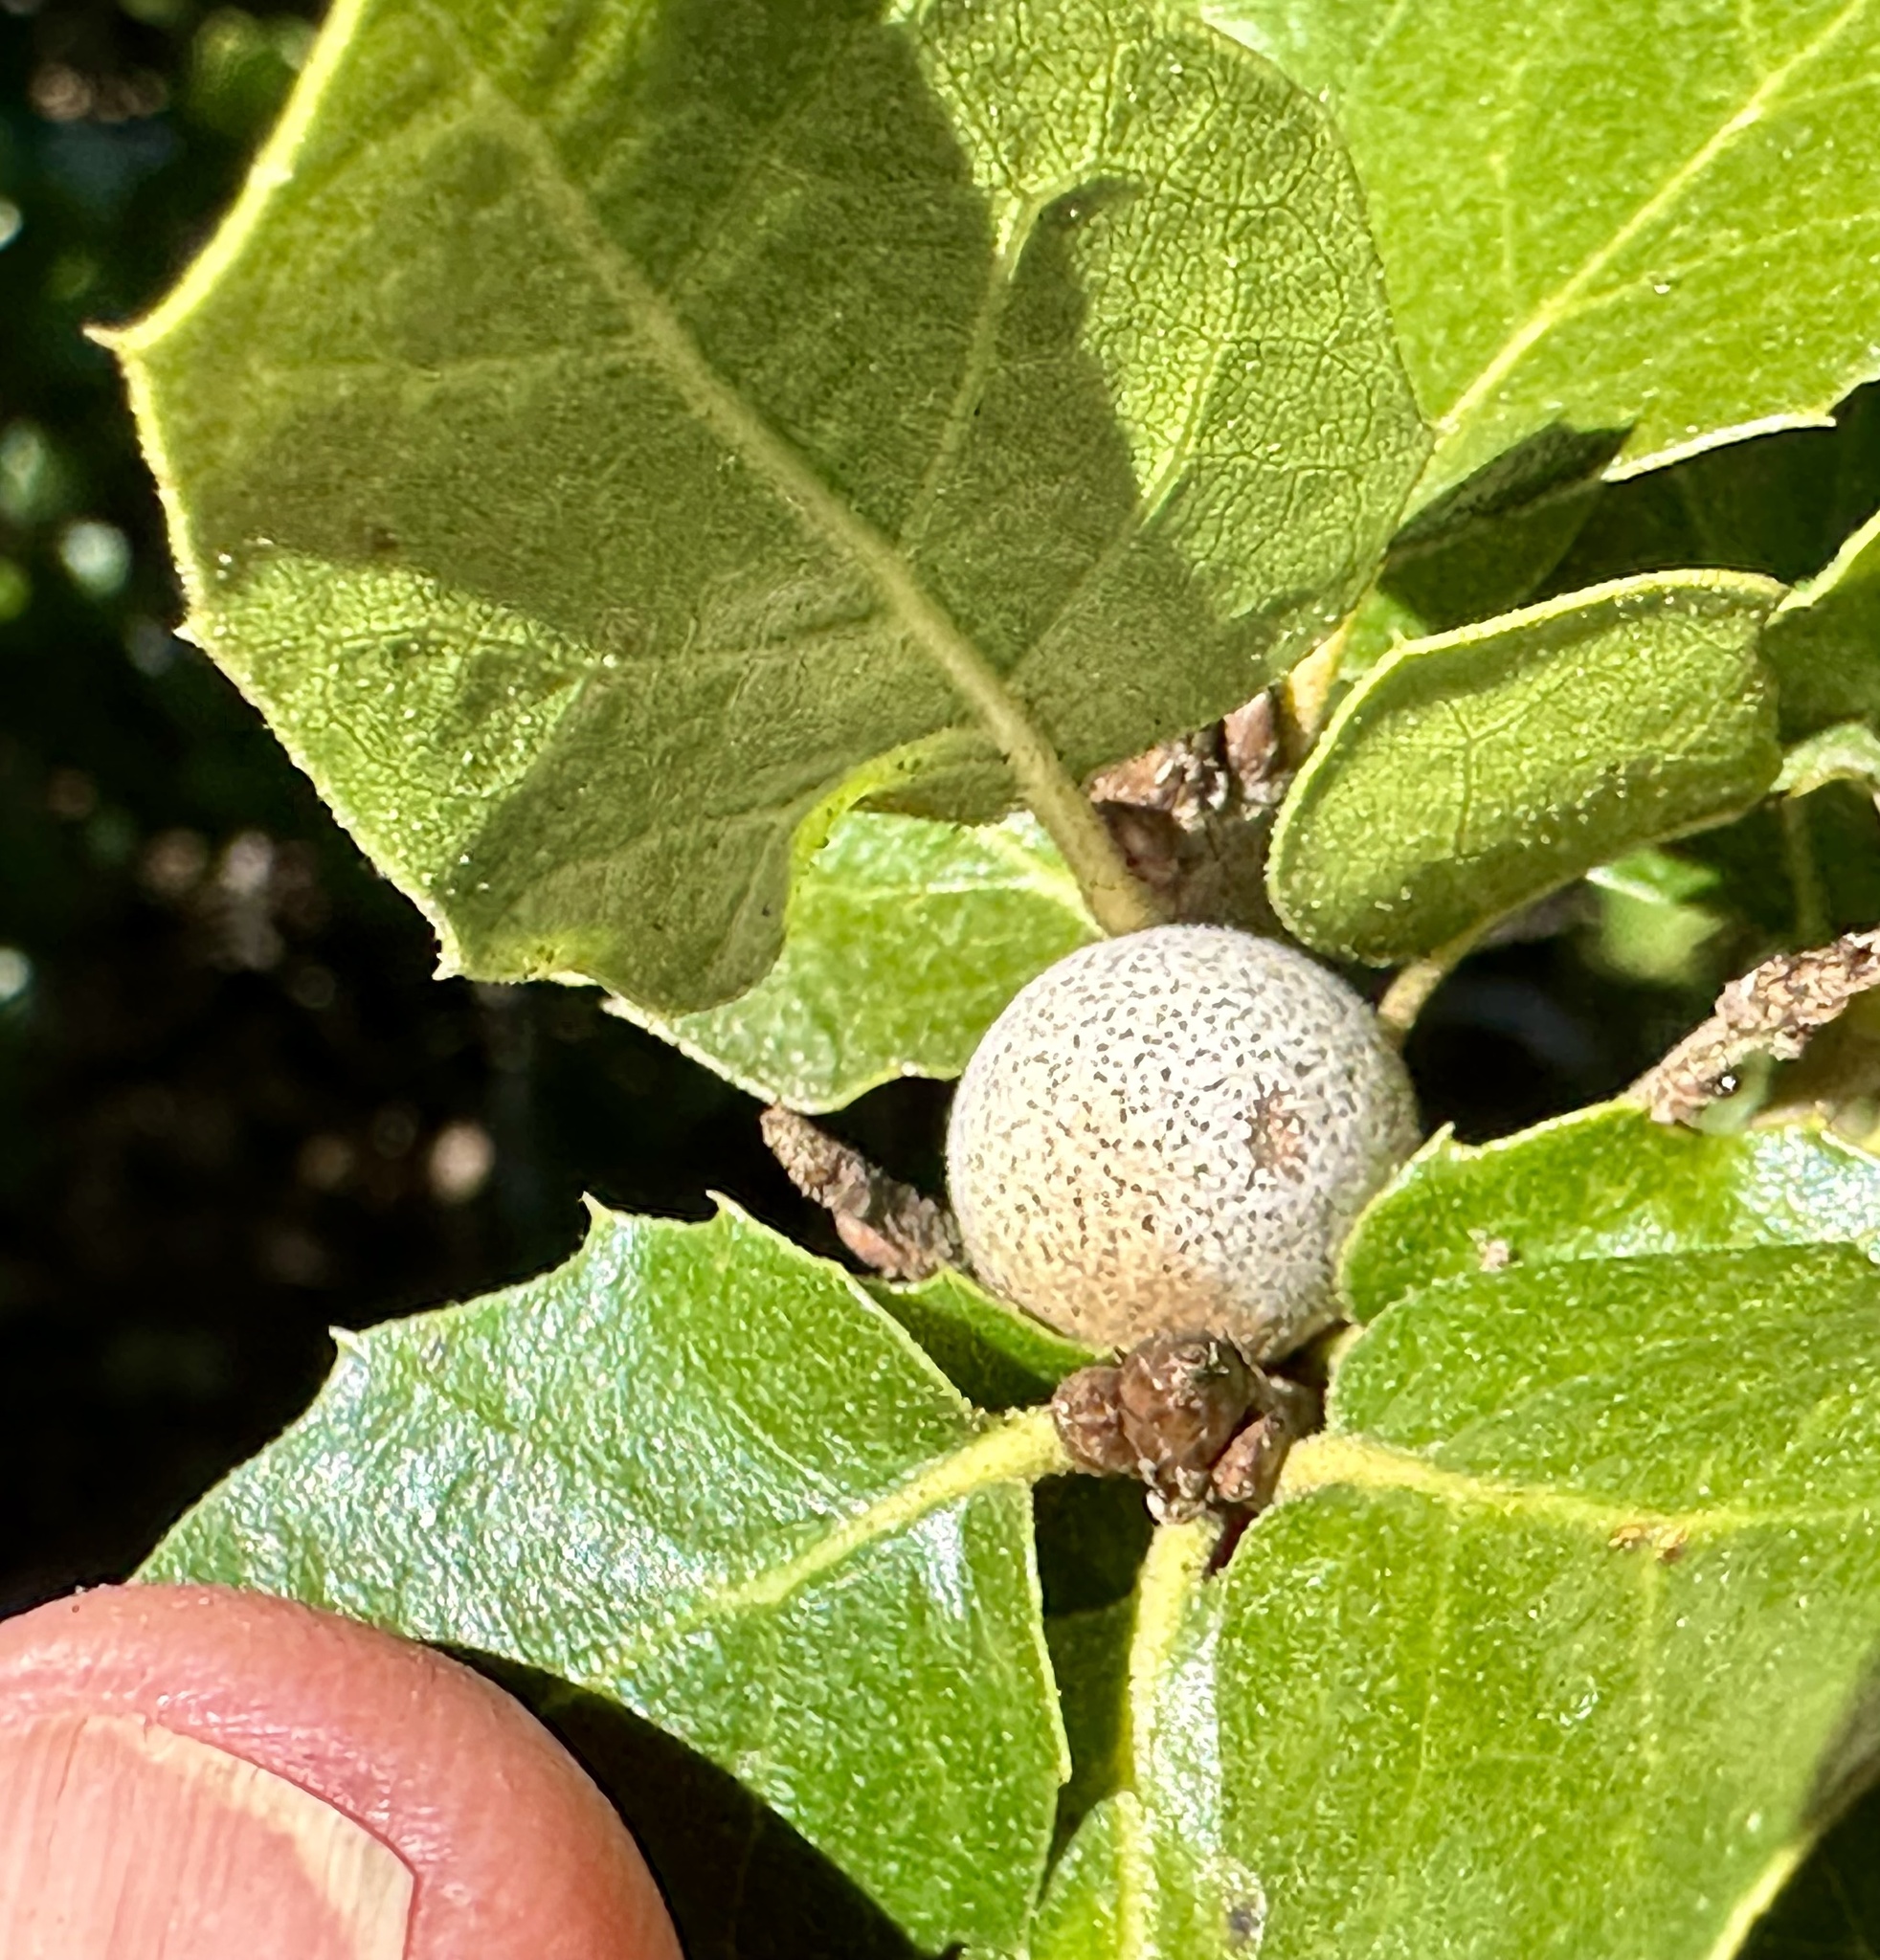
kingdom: Animalia
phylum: Arthropoda
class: Insecta
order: Hymenoptera
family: Cynipidae
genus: Callirhytis
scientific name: Callirhytis
